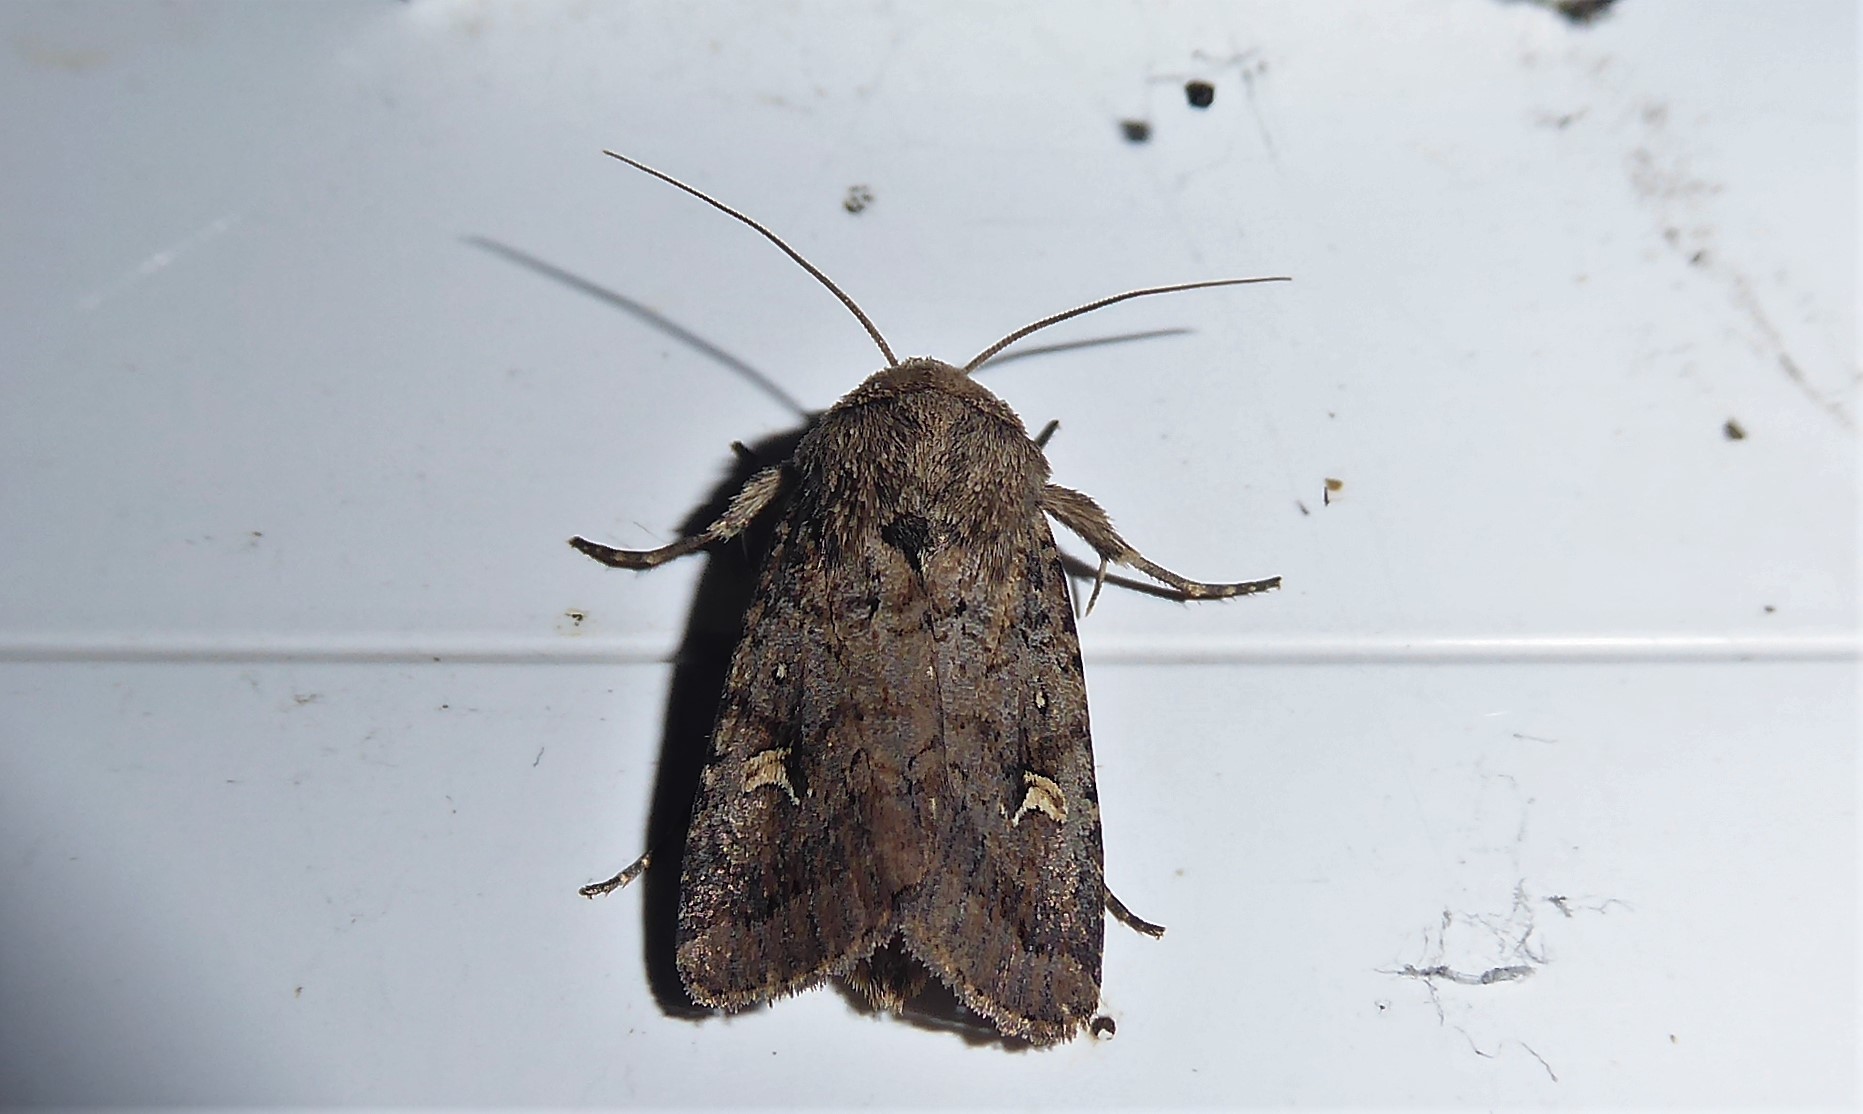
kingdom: Animalia
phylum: Arthropoda
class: Insecta
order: Lepidoptera
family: Noctuidae
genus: Proteuxoa
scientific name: Proteuxoa tetronycha
